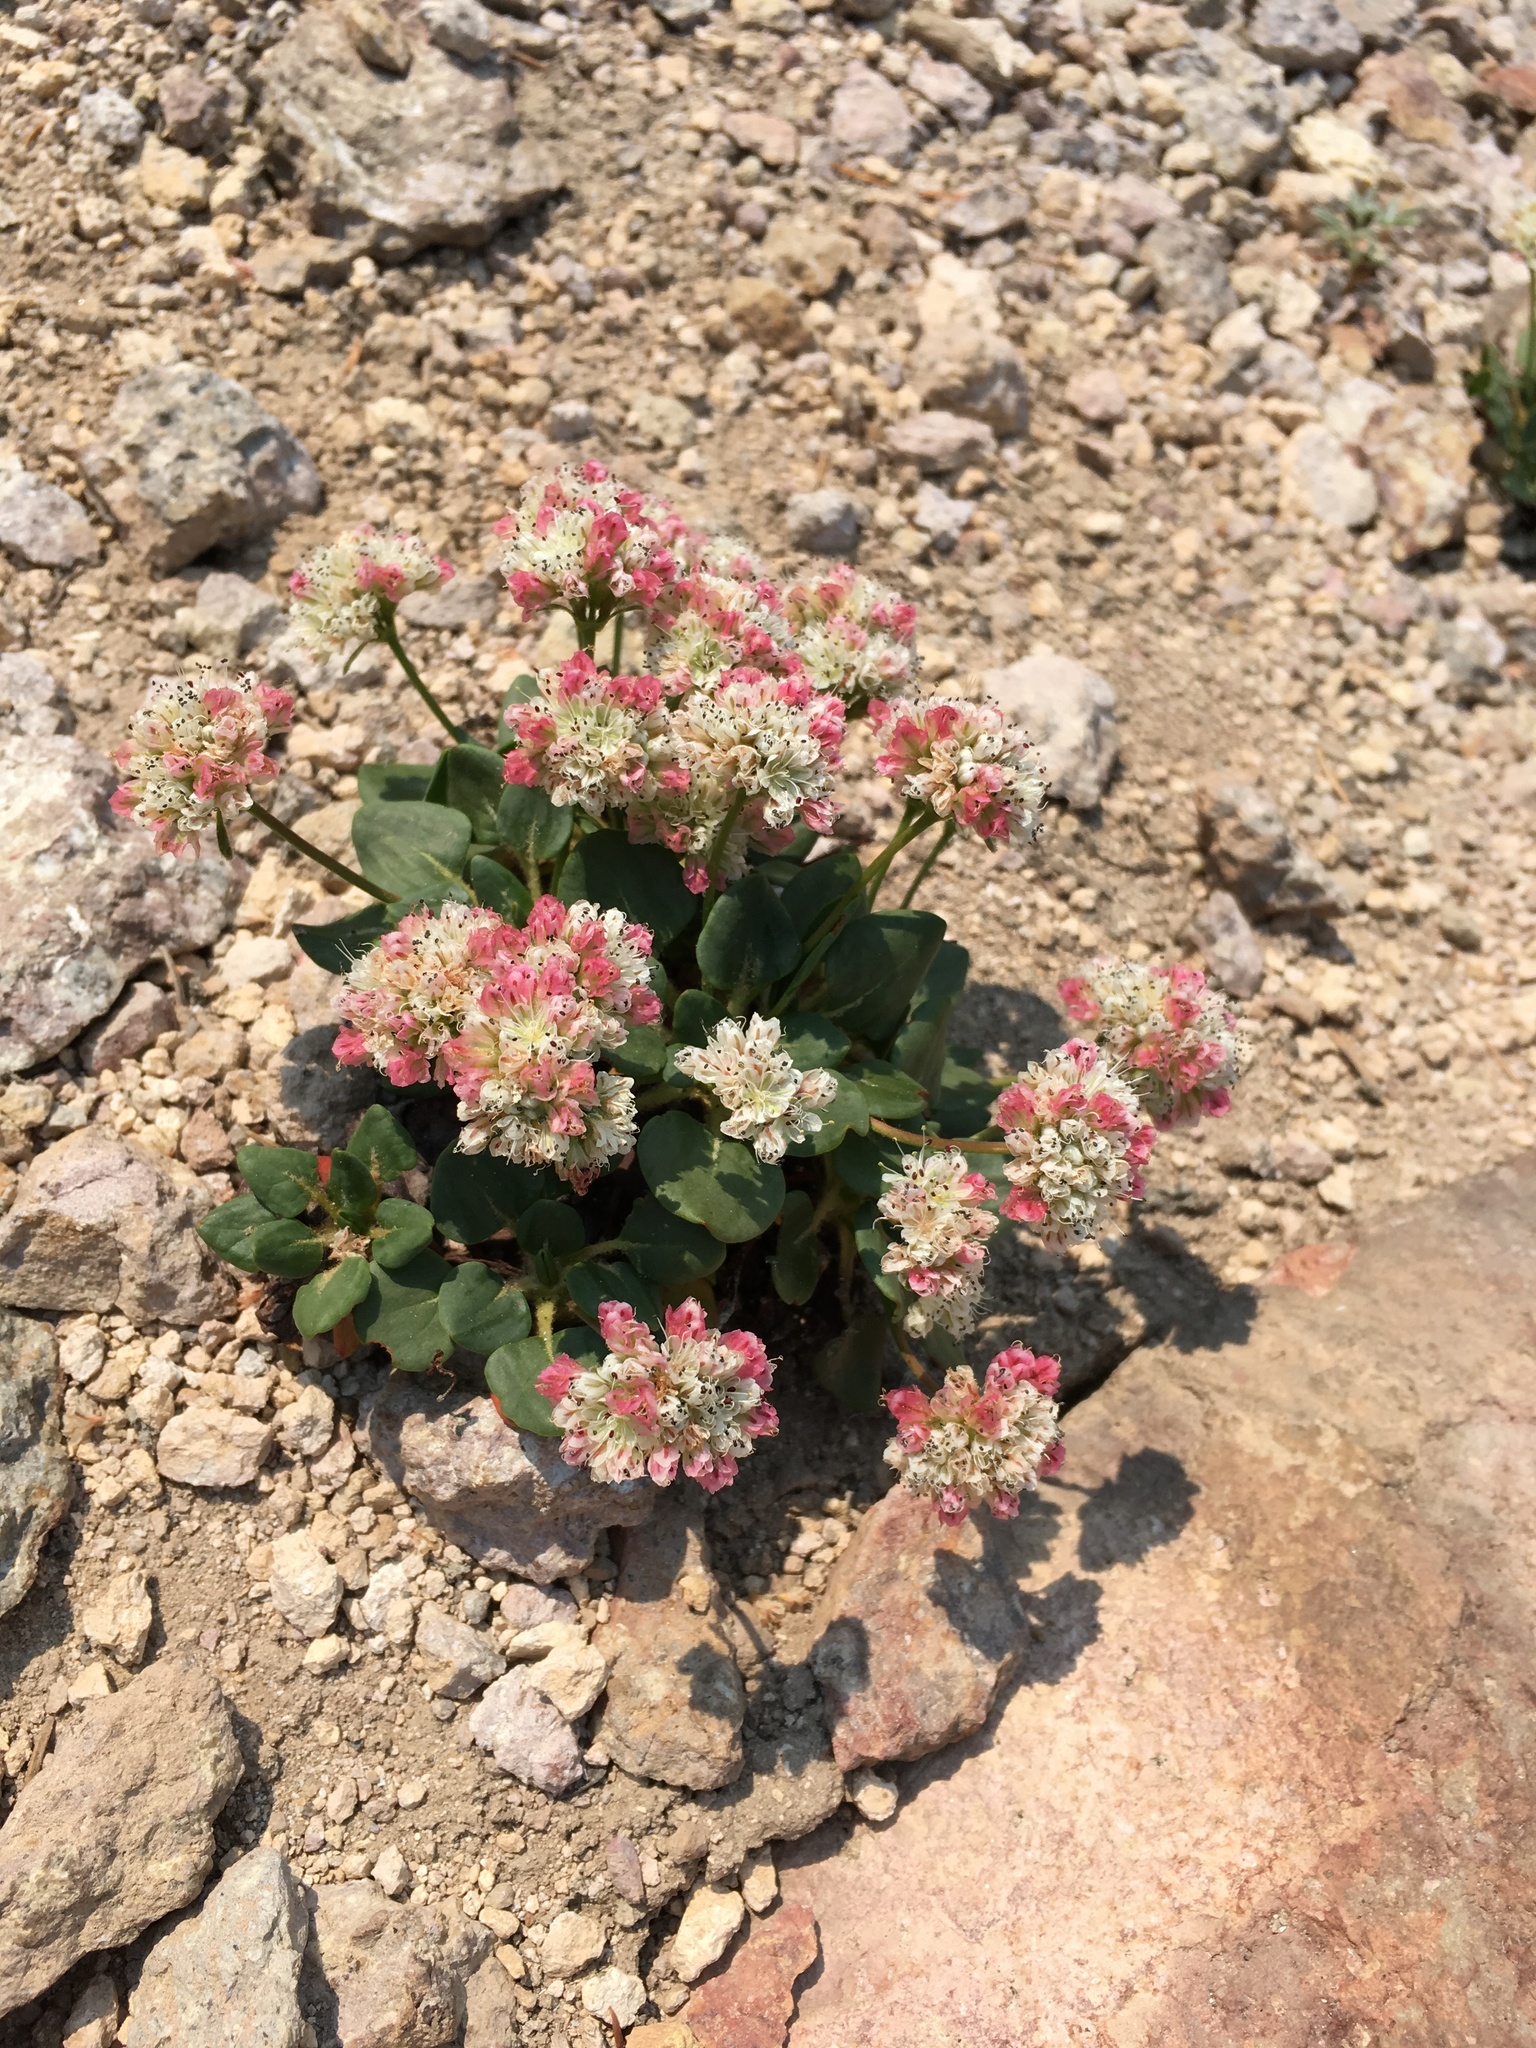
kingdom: Plantae
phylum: Tracheophyta
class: Magnoliopsida
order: Caryophyllales
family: Polygonaceae
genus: Eriogonum
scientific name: Eriogonum pyrolifolium
